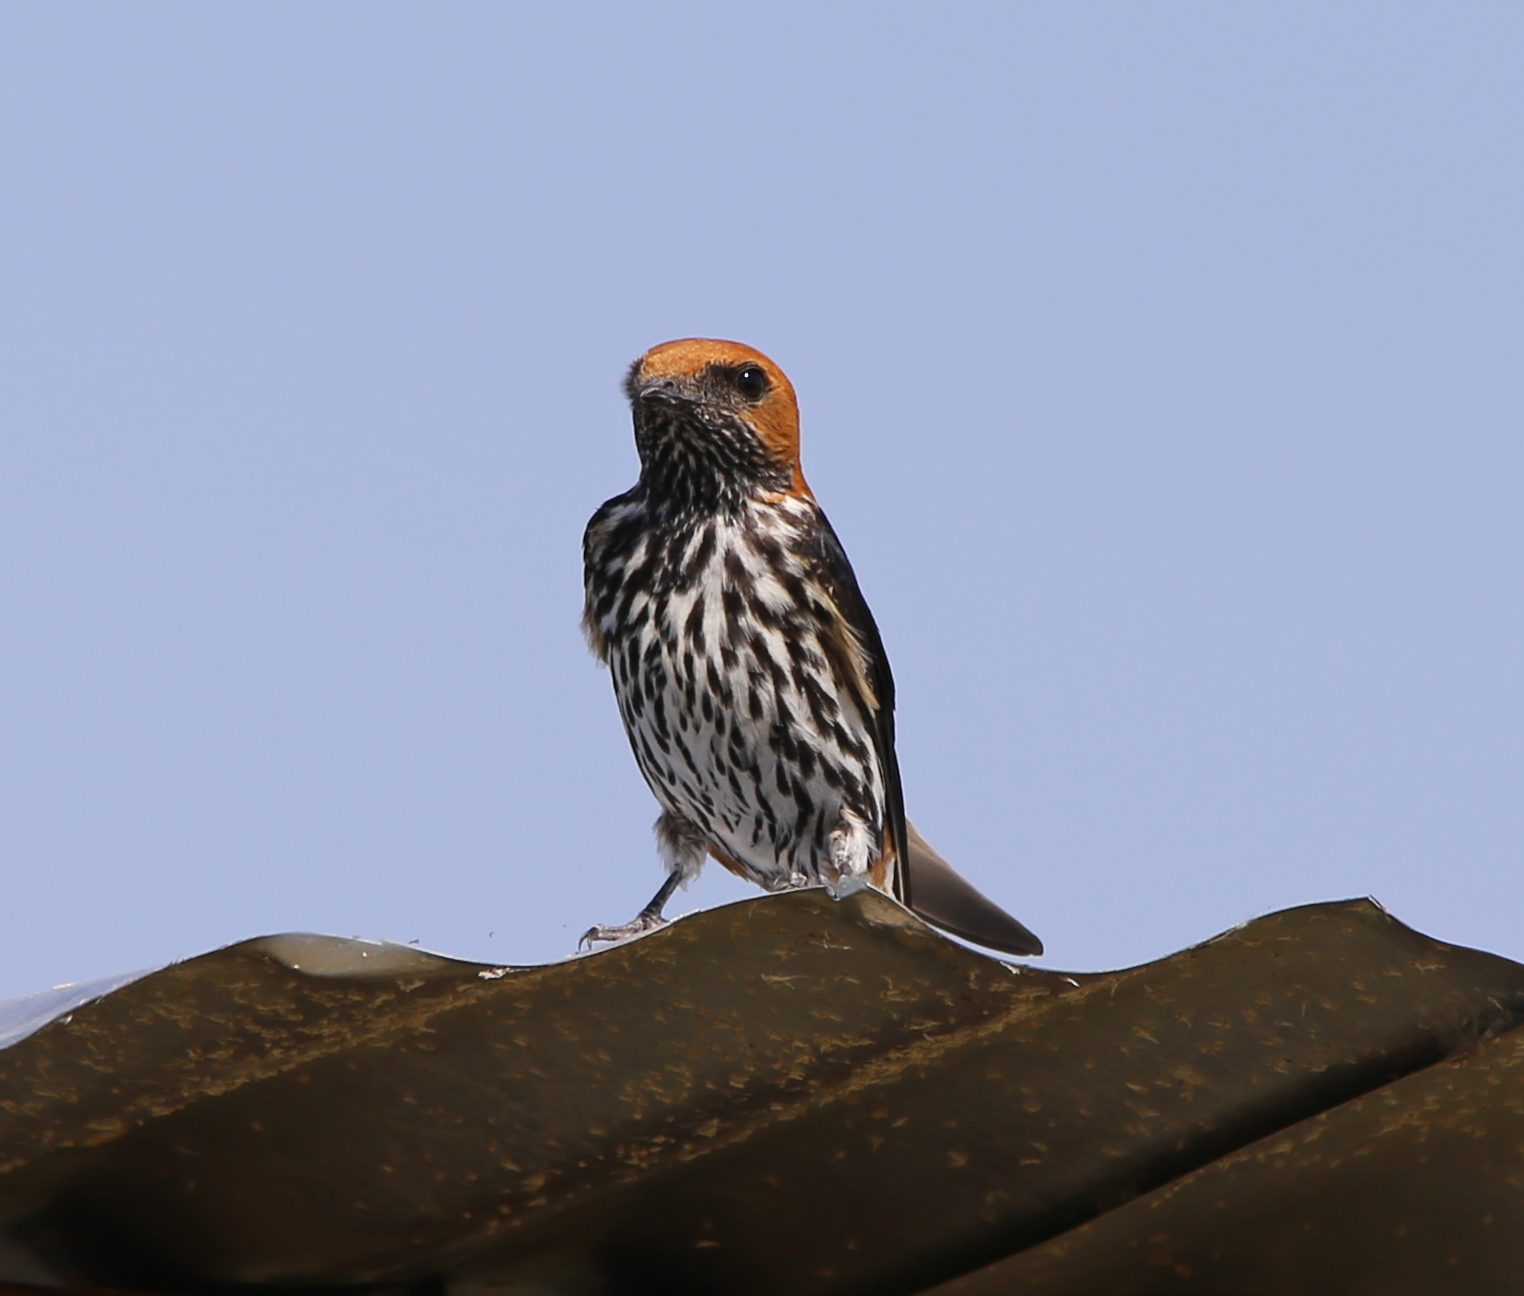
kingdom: Animalia
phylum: Chordata
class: Aves
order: Passeriformes
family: Hirundinidae
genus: Cecropis
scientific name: Cecropis abyssinica
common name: Lesser striped-swallow
